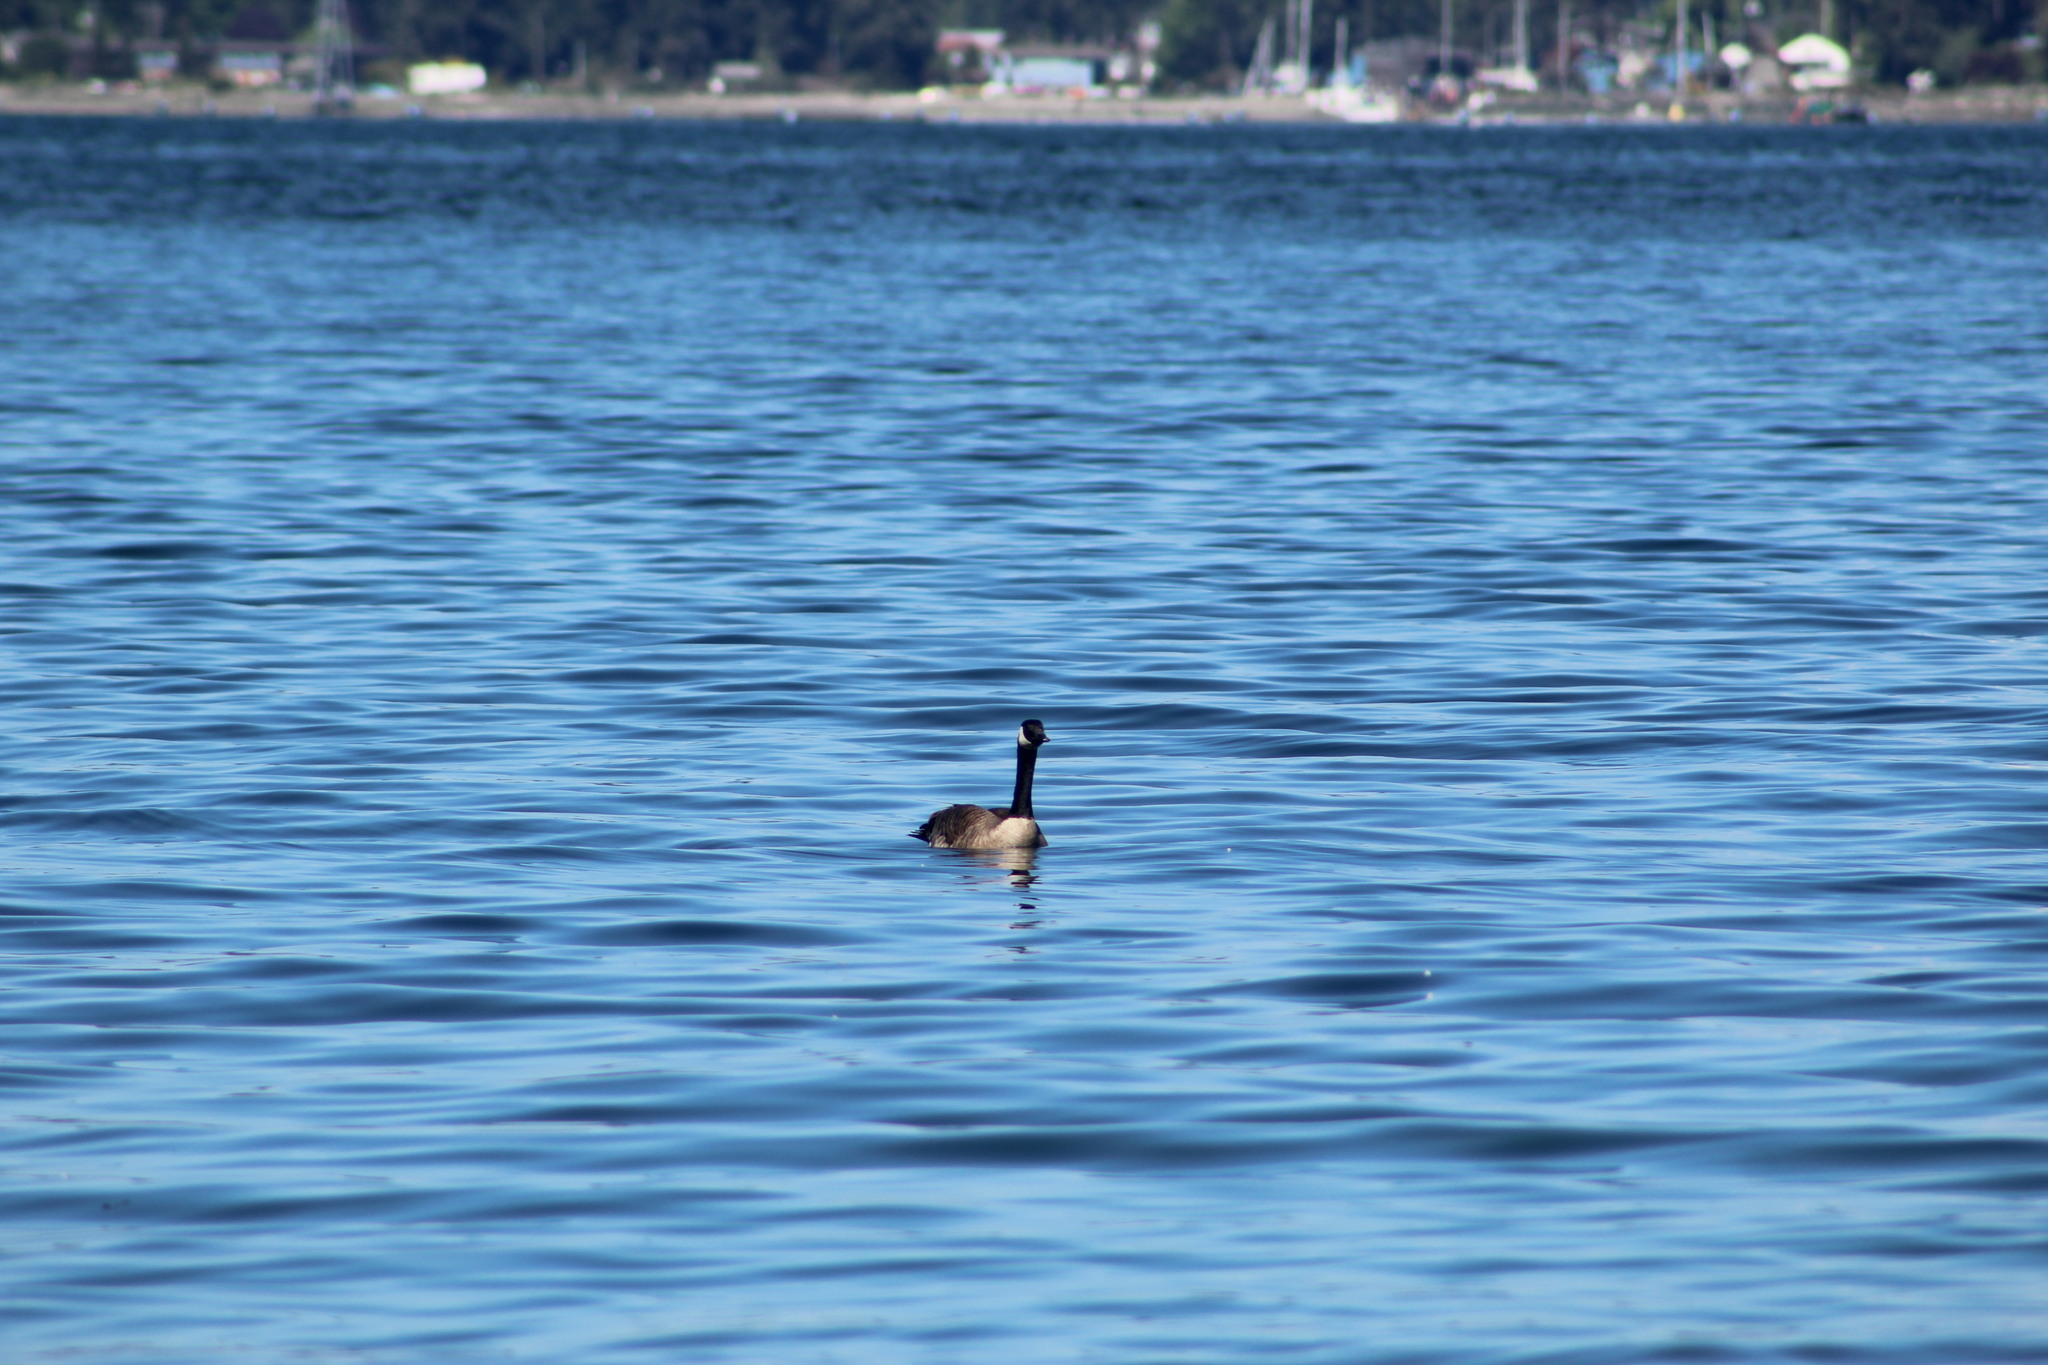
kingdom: Animalia
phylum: Chordata
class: Aves
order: Anseriformes
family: Anatidae
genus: Branta
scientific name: Branta canadensis
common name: Canada goose
